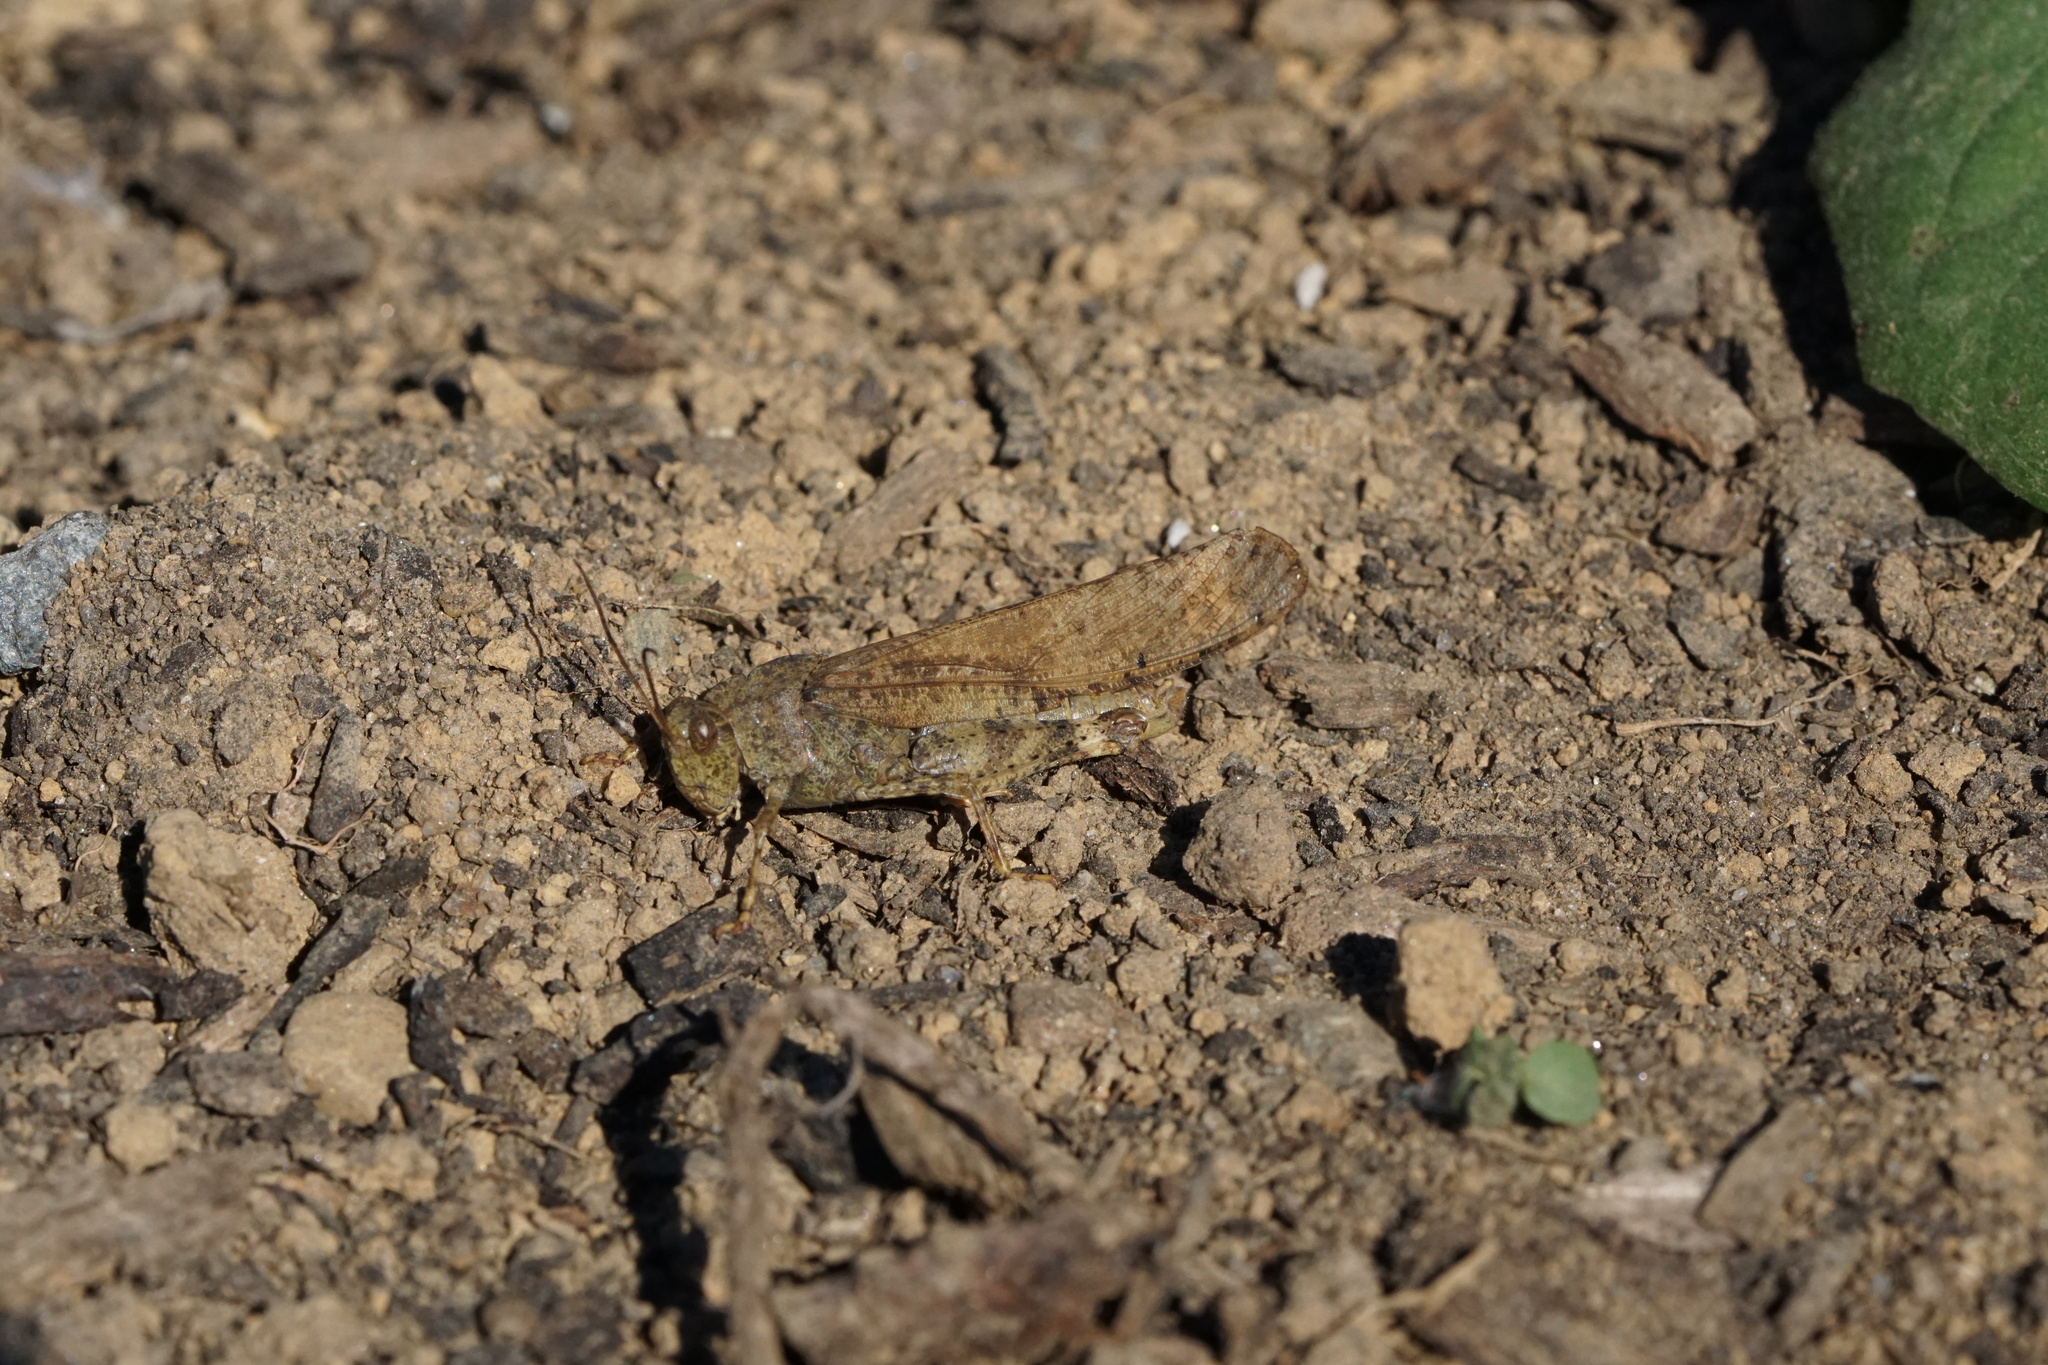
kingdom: Animalia
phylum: Arthropoda
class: Insecta
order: Orthoptera
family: Acrididae
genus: Dissosteira
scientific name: Dissosteira carolina
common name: Carolina grasshopper
